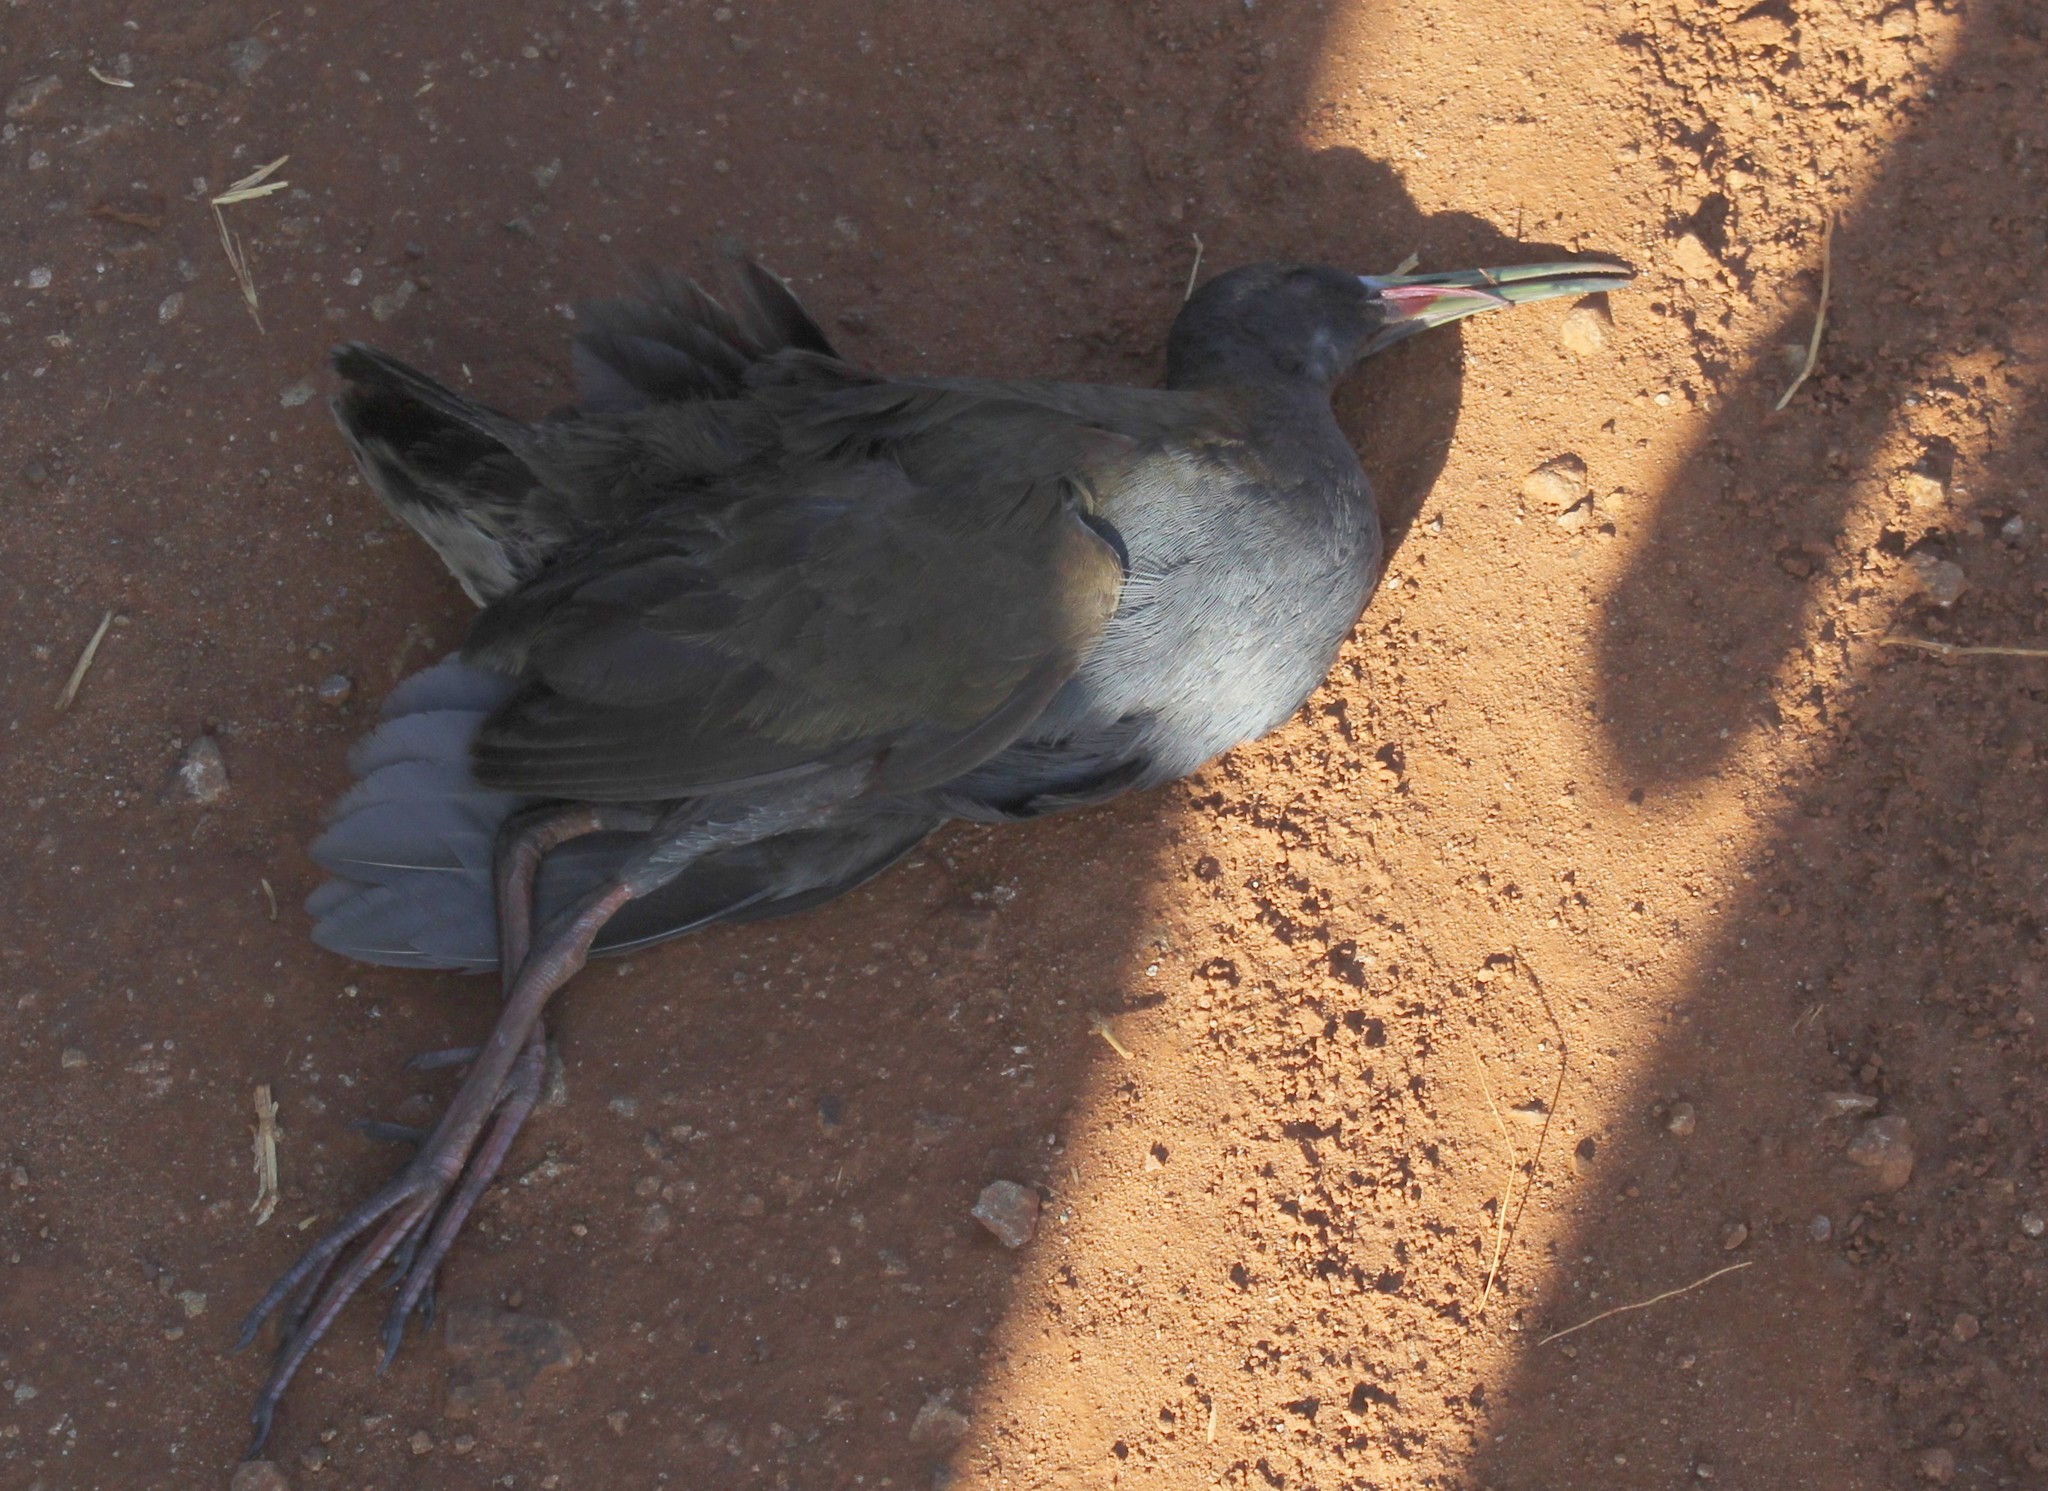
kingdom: Animalia
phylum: Chordata
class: Aves
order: Gruiformes
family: Rallidae
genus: Pardirallus
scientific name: Pardirallus sanguinolentus
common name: Plumbeous rail
